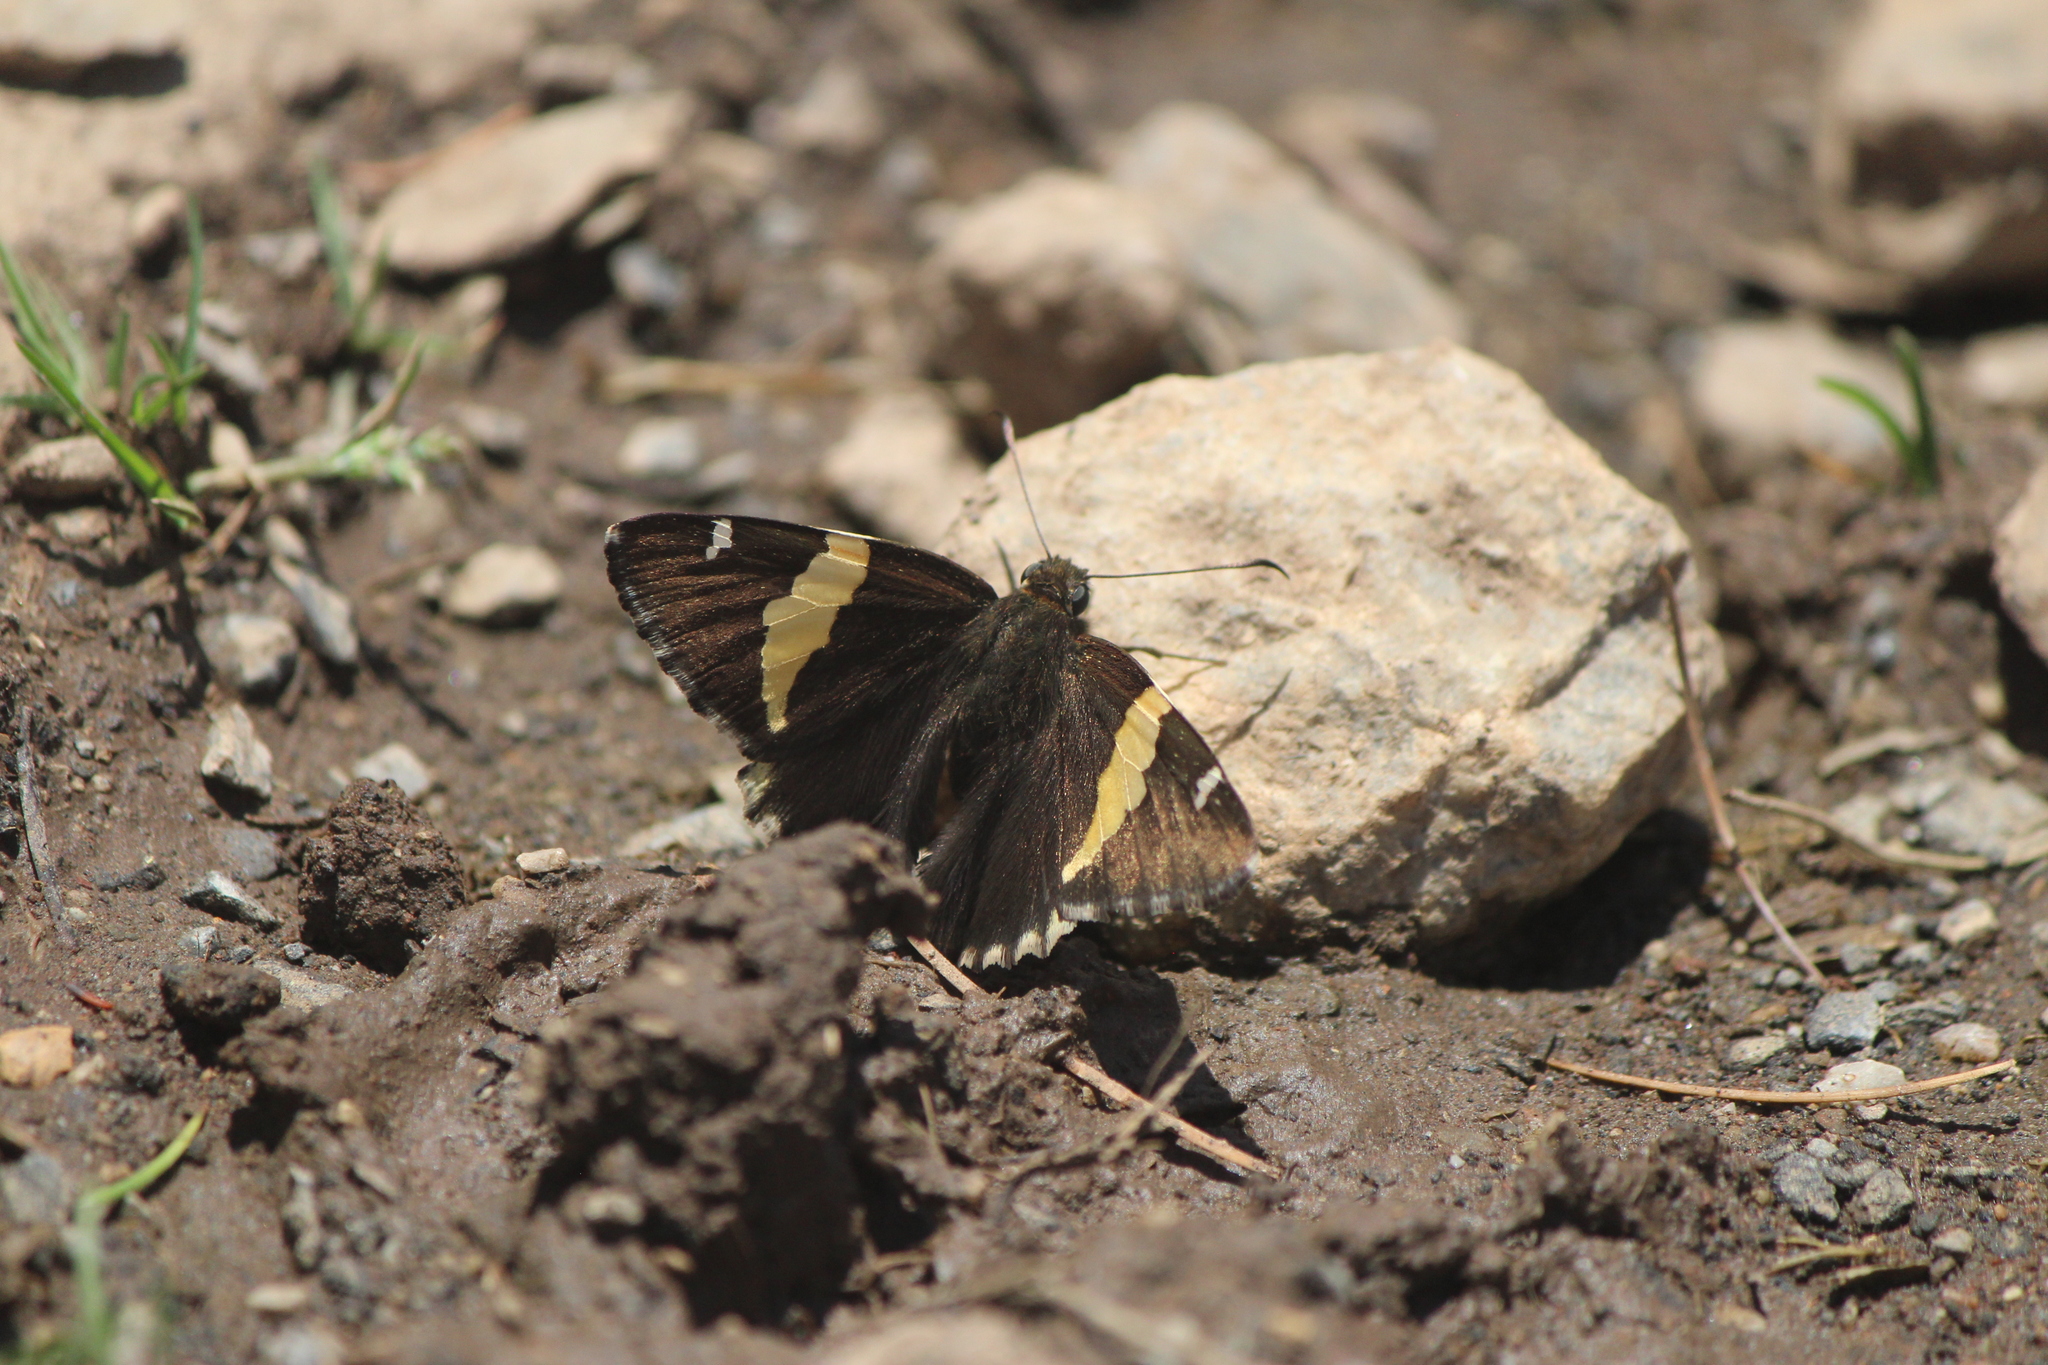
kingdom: Animalia
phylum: Arthropoda
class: Arachnida
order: Scorpiones
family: Bothriuridae
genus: Telegonus
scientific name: Telegonus cellus
